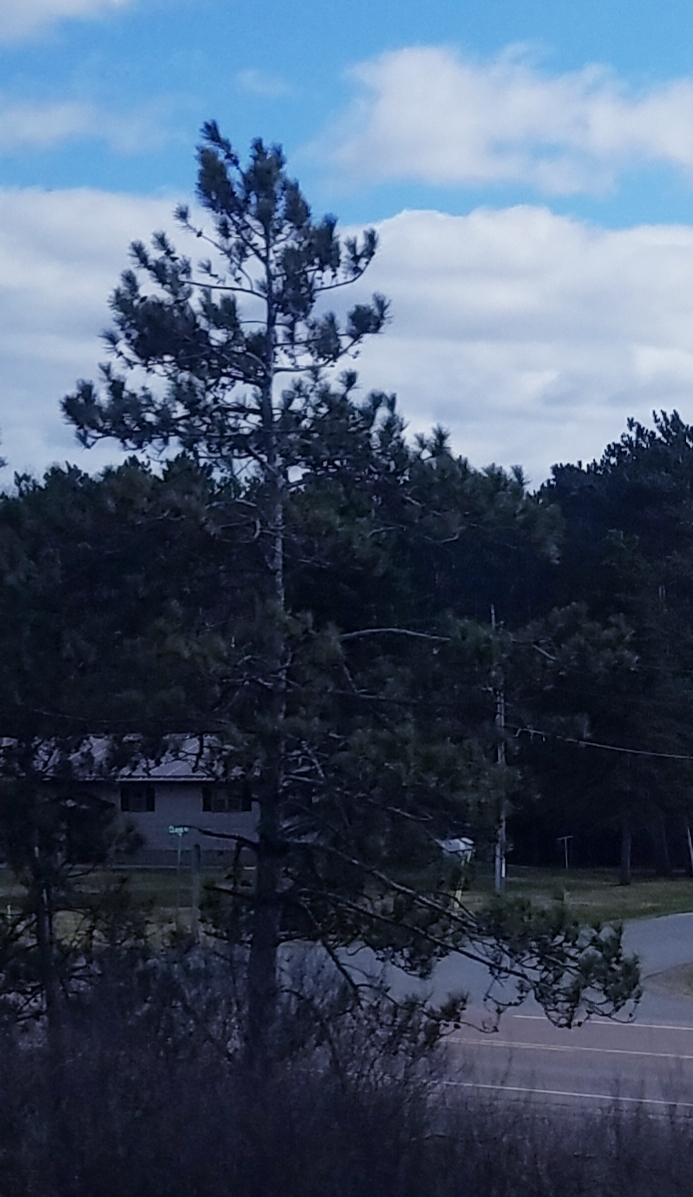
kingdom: Plantae
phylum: Tracheophyta
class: Pinopsida
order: Pinales
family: Pinaceae
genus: Pinus
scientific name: Pinus resinosa
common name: Norway pine
